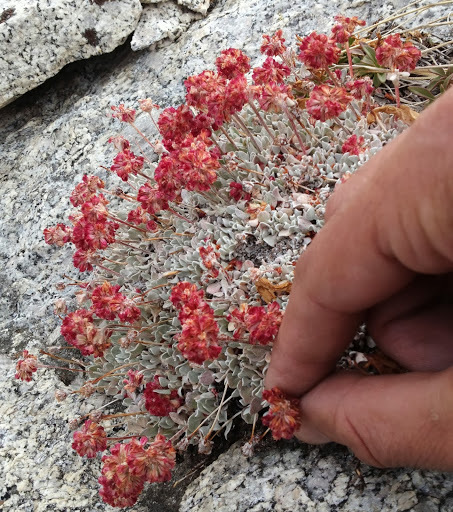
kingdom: Plantae
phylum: Tracheophyta
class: Magnoliopsida
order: Caryophyllales
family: Polygonaceae
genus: Eriogonum
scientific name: Eriogonum ovalifolium
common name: Cushion buckwheat
